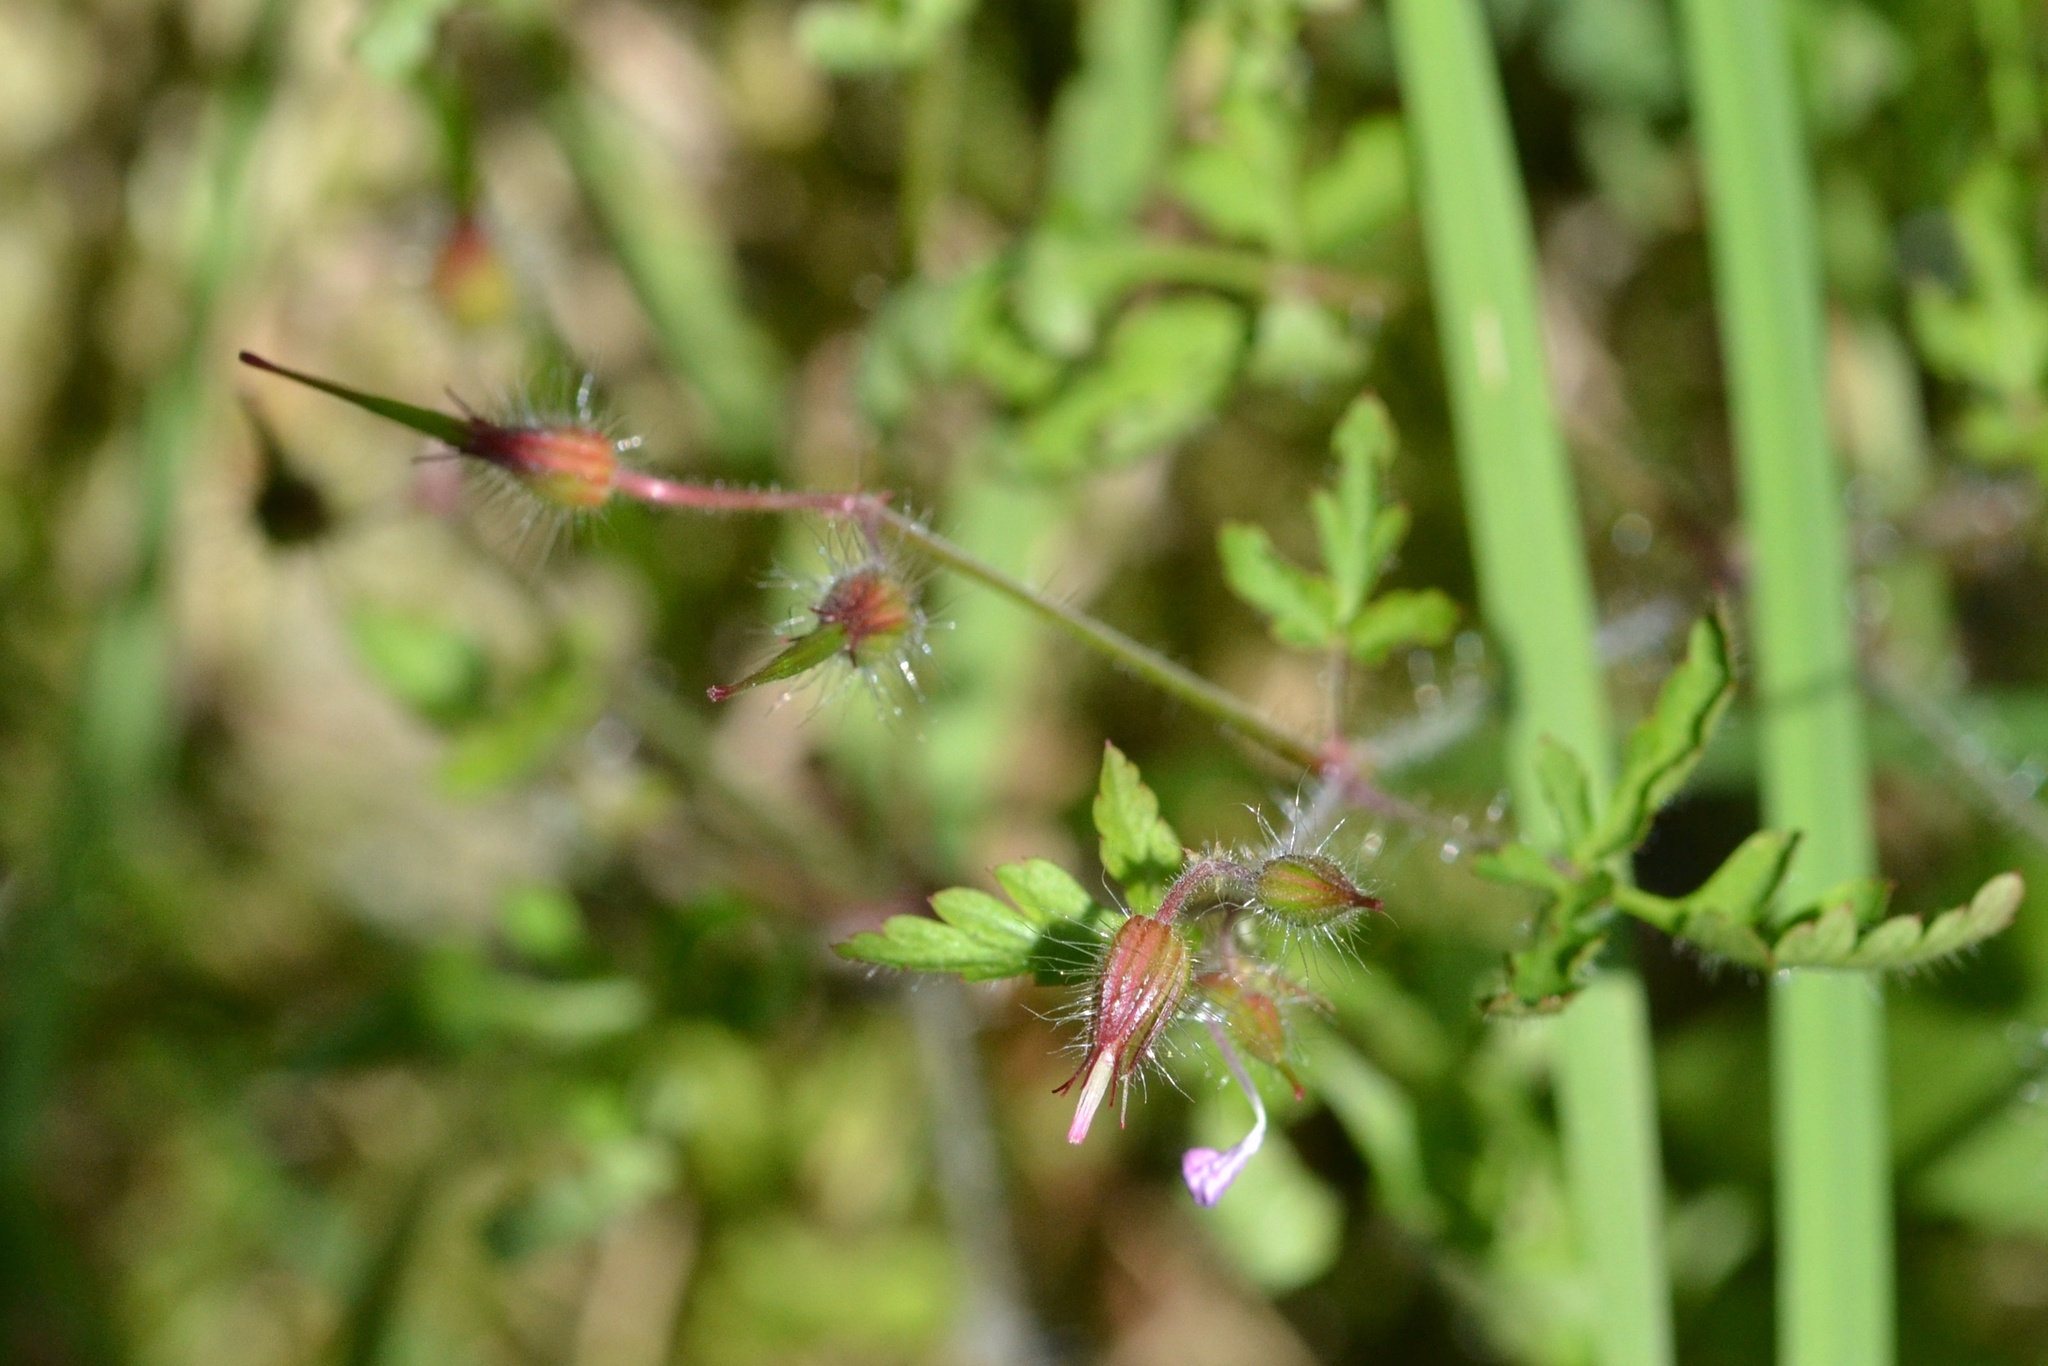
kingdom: Plantae
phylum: Tracheophyta
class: Magnoliopsida
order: Geraniales
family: Geraniaceae
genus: Geranium
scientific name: Geranium robertianum
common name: Herb-robert
